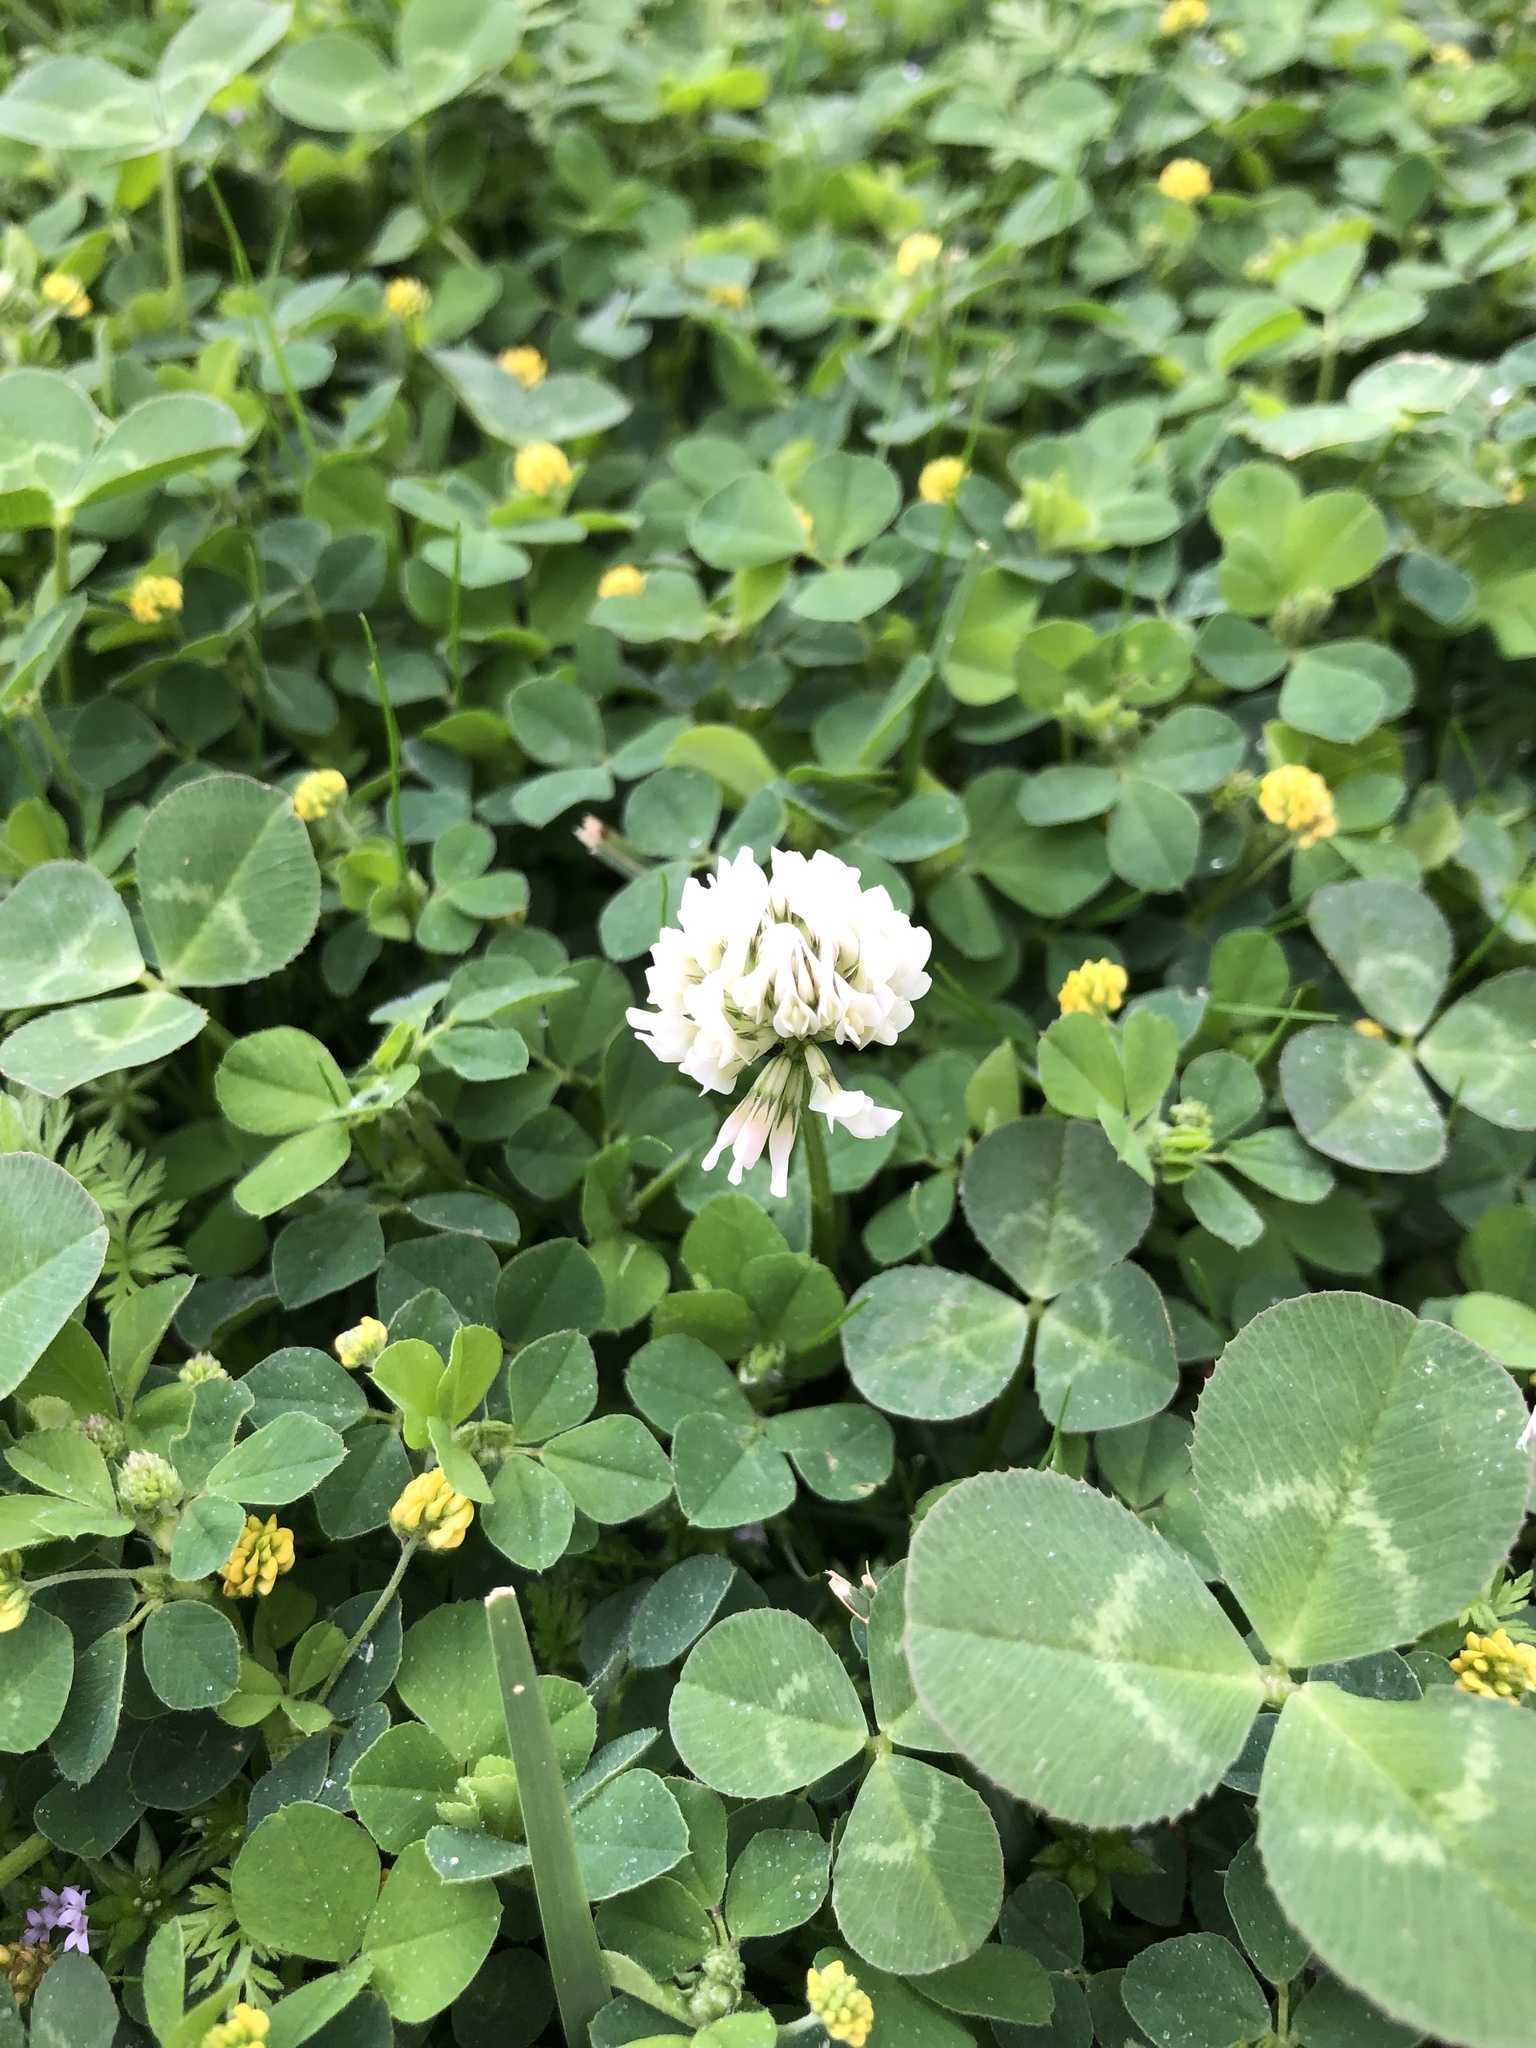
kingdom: Plantae
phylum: Tracheophyta
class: Magnoliopsida
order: Fabales
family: Fabaceae
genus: Trifolium
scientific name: Trifolium repens
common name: White clover
